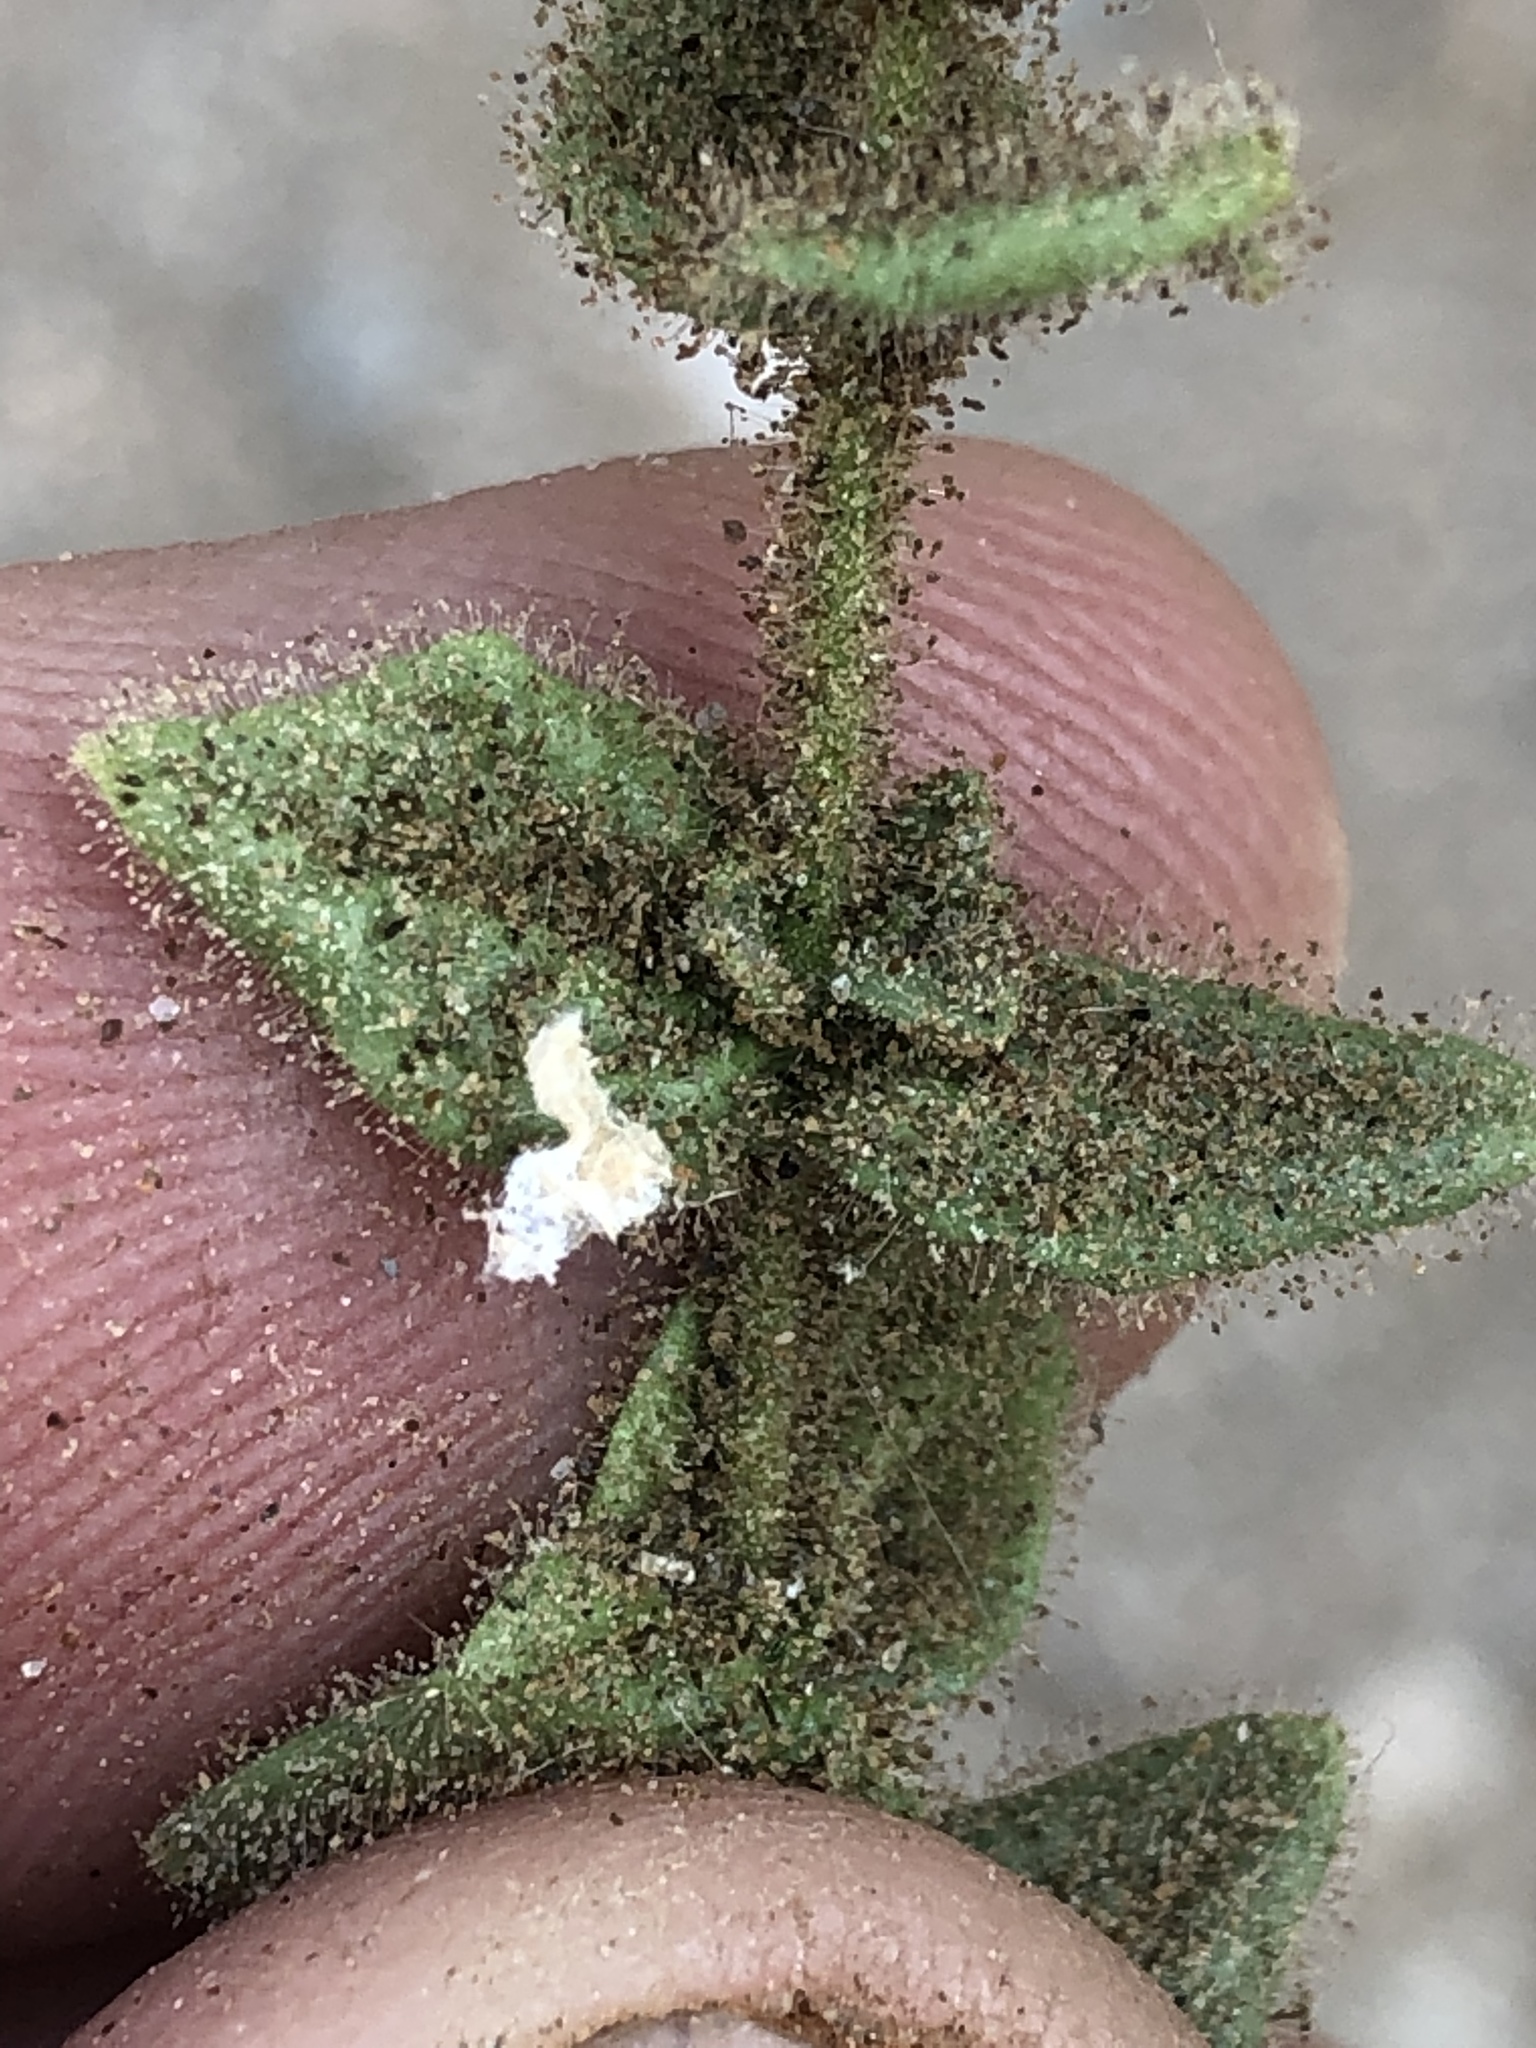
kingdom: Plantae
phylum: Tracheophyta
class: Magnoliopsida
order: Lamiales
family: Scrophulariaceae
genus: Jamesbrittenia
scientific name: Jamesbrittenia maxii
